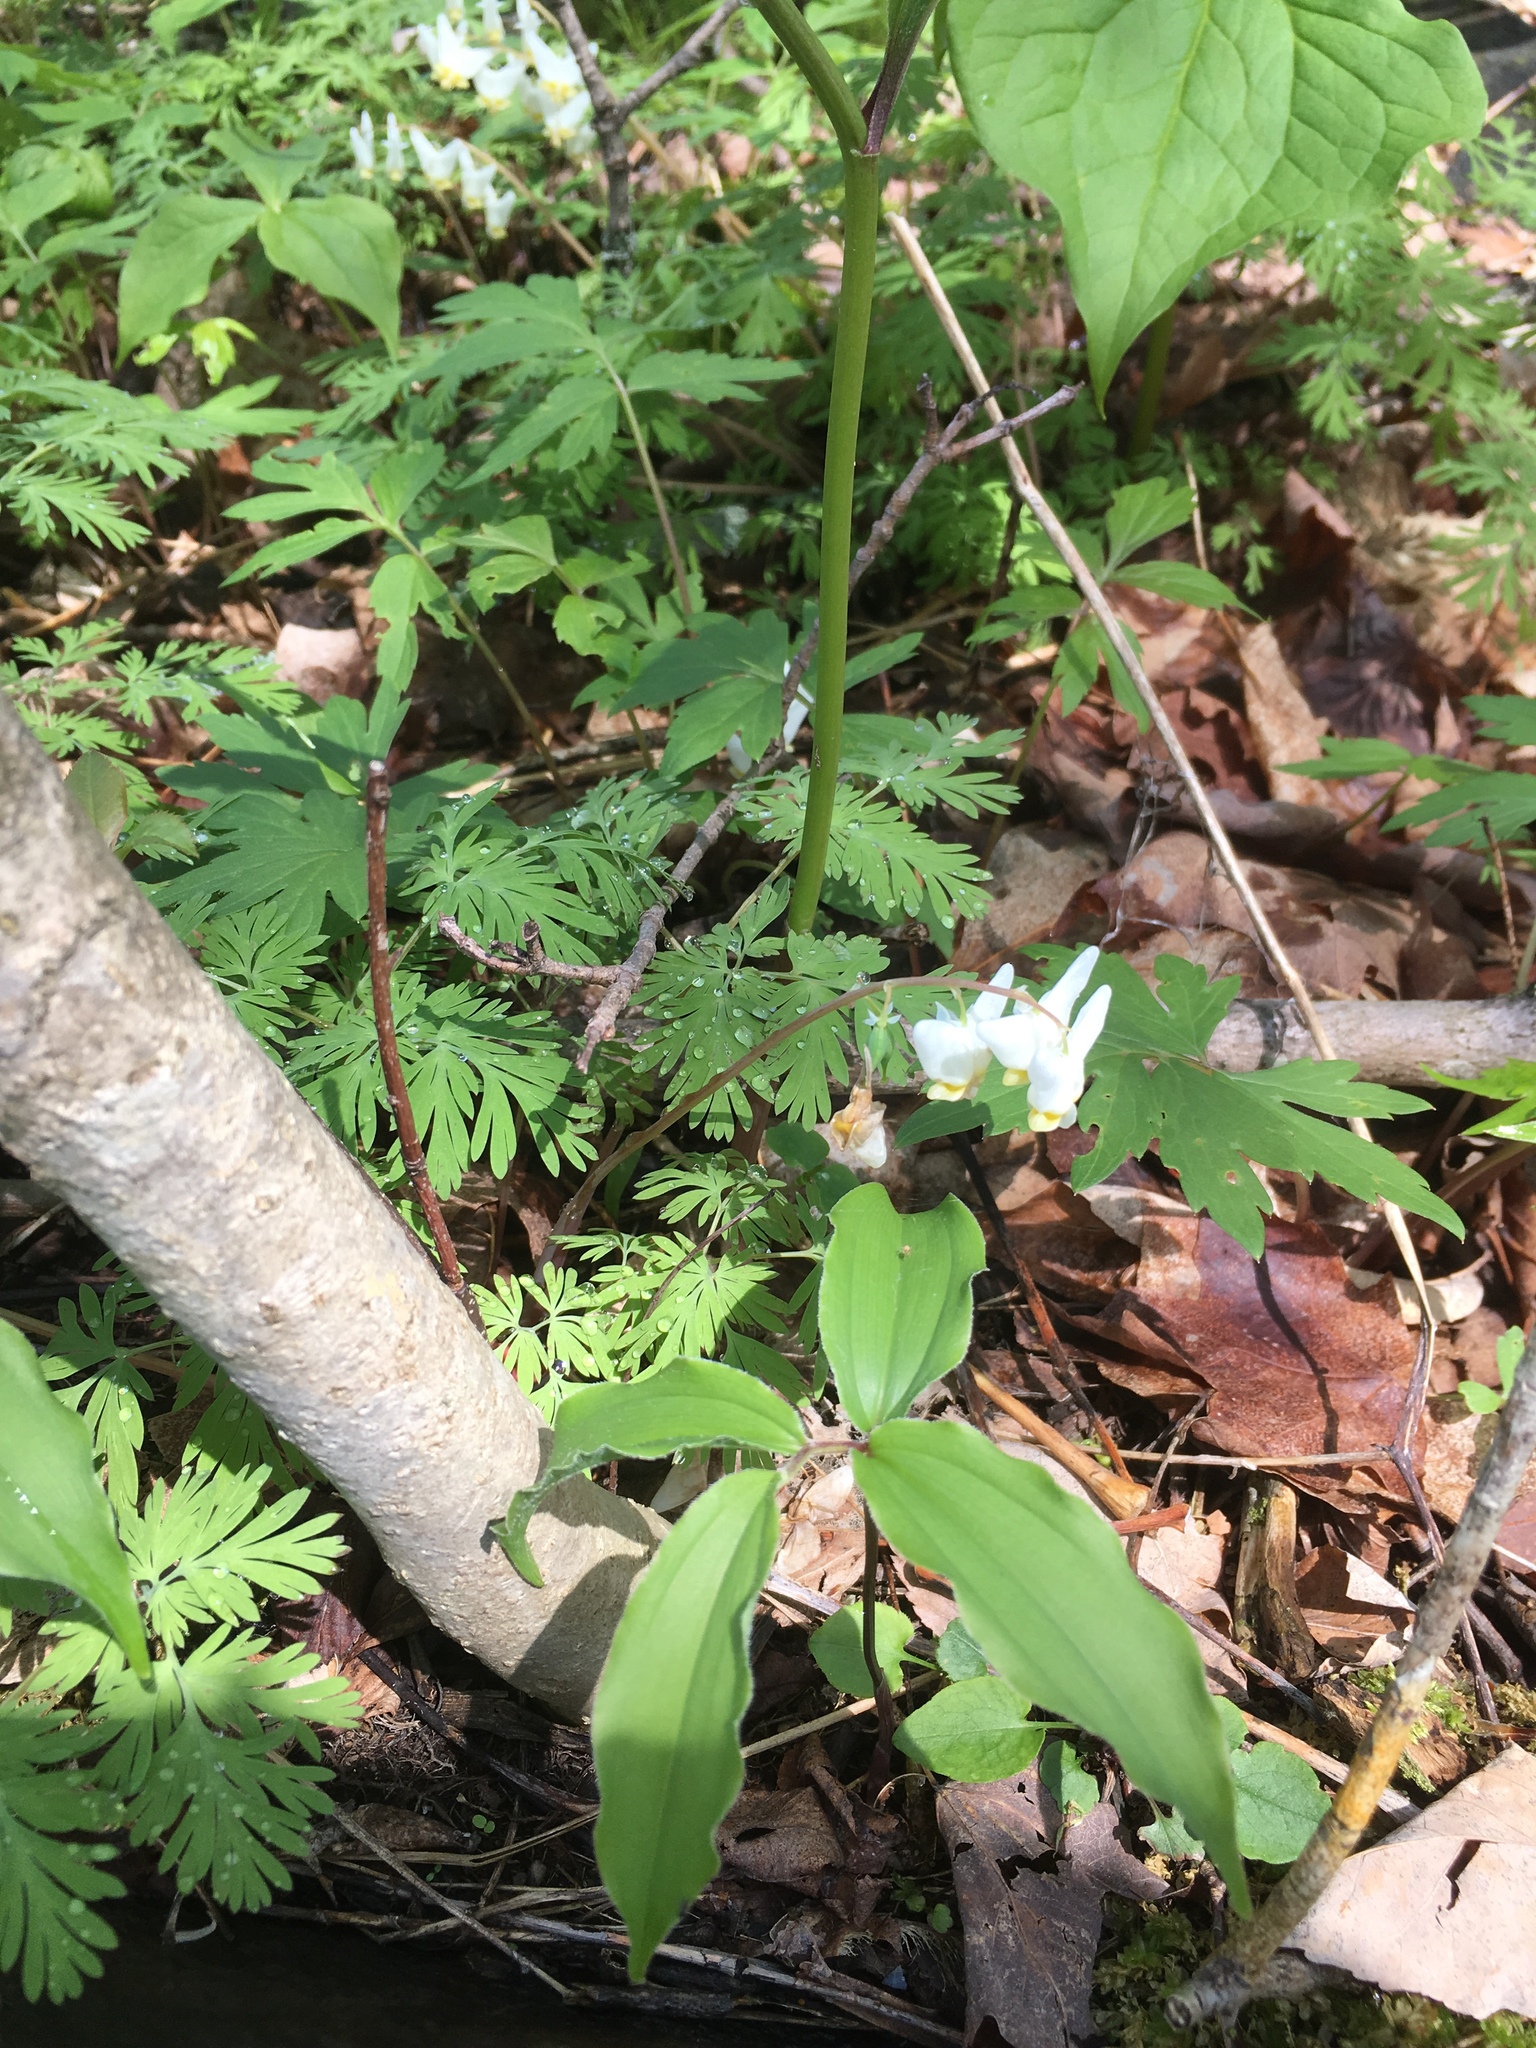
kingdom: Plantae
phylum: Tracheophyta
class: Magnoliopsida
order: Ranunculales
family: Papaveraceae
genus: Dicentra
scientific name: Dicentra cucullaria
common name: Dutchman's breeches
